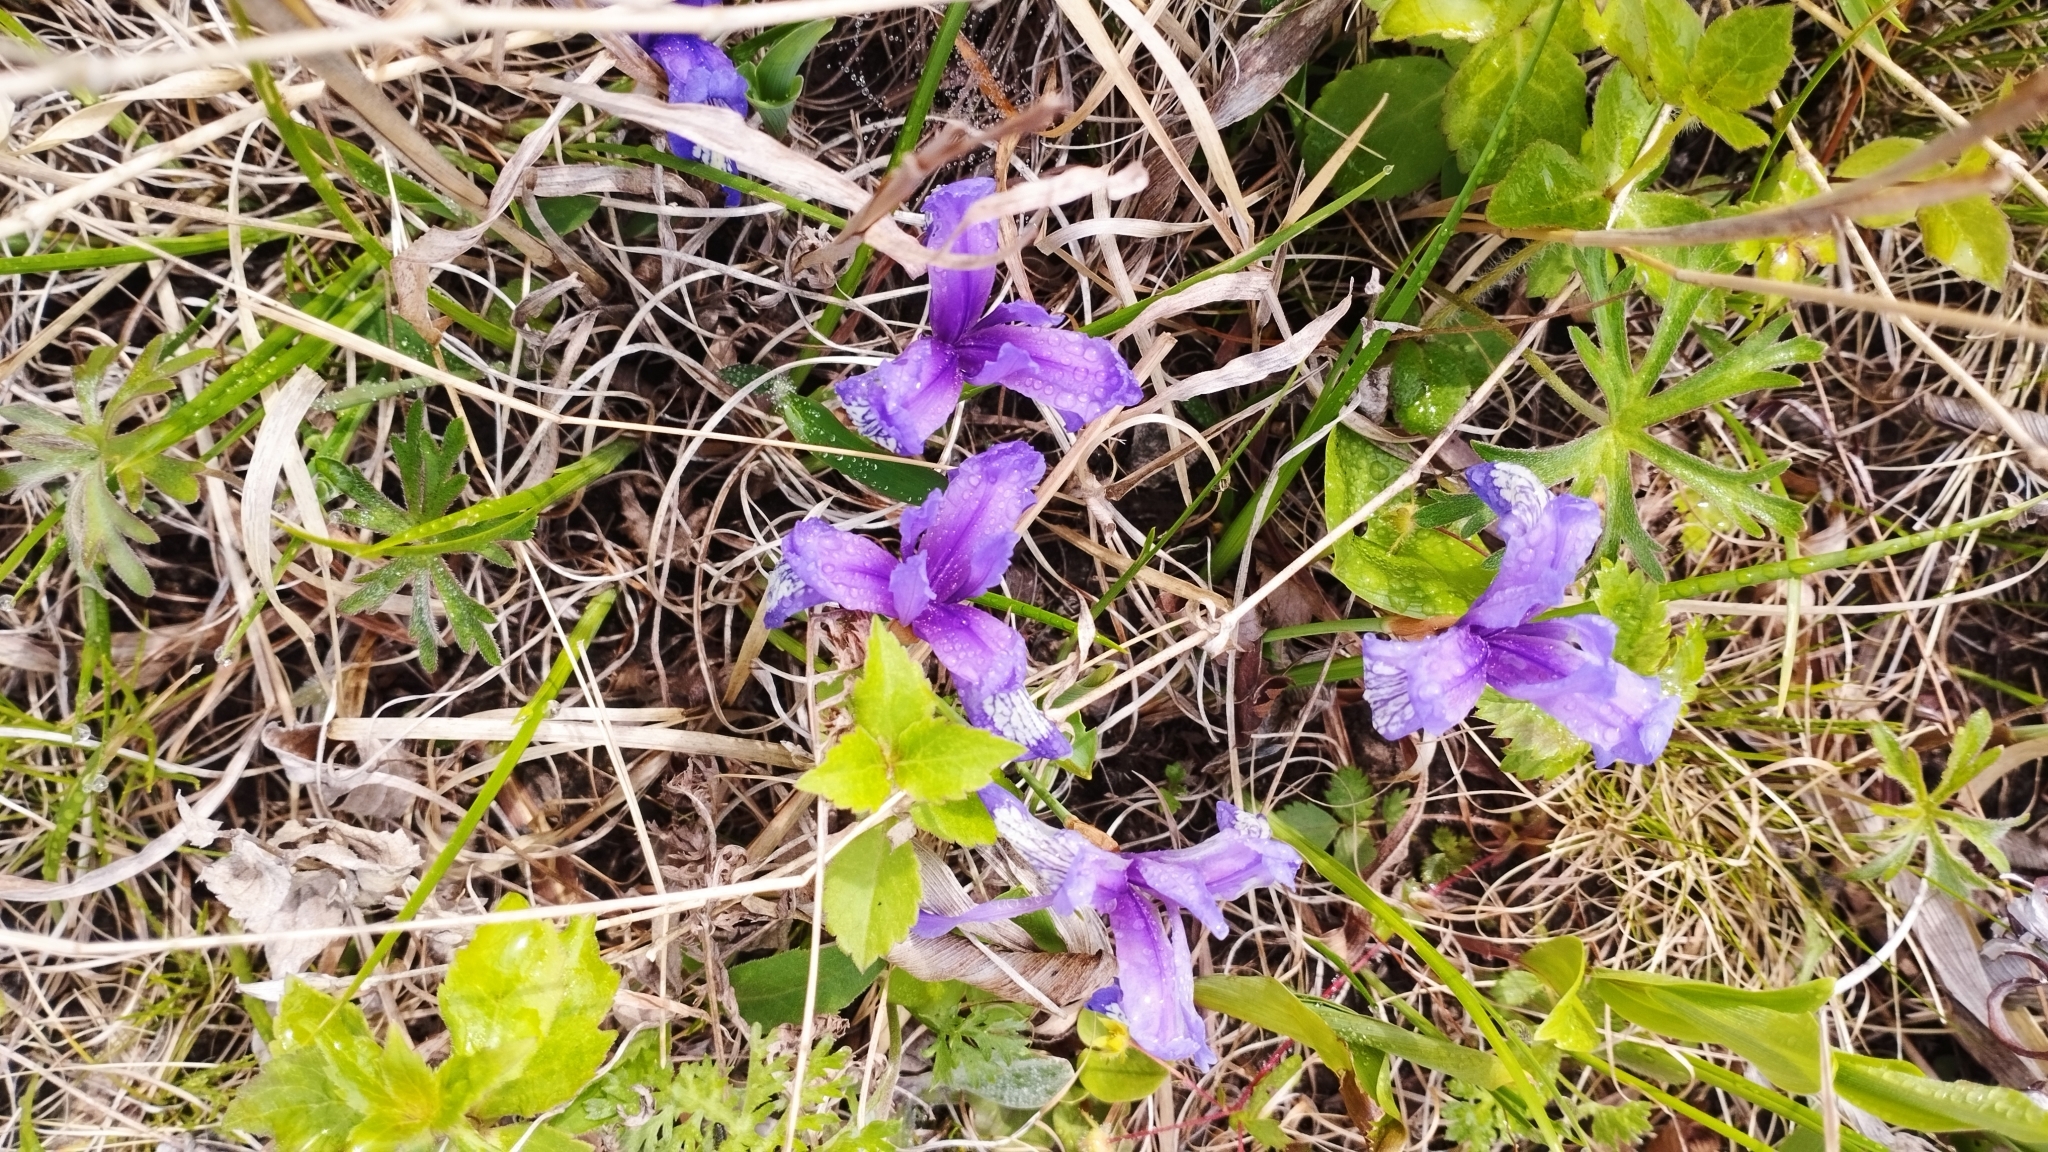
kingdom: Plantae
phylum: Tracheophyta
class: Liliopsida
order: Asparagales
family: Iridaceae
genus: Iris
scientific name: Iris uniflora
